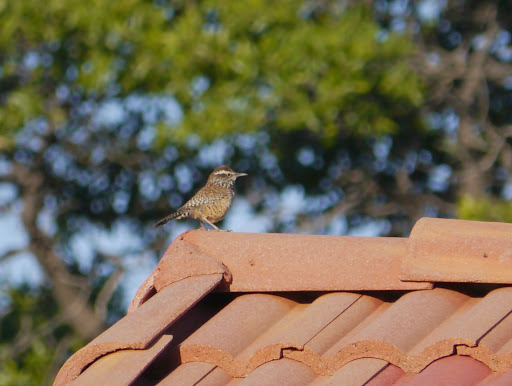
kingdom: Animalia
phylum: Chordata
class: Aves
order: Passeriformes
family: Troglodytidae
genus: Campylorhynchus
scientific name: Campylorhynchus brunneicapillus
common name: Cactus wren
